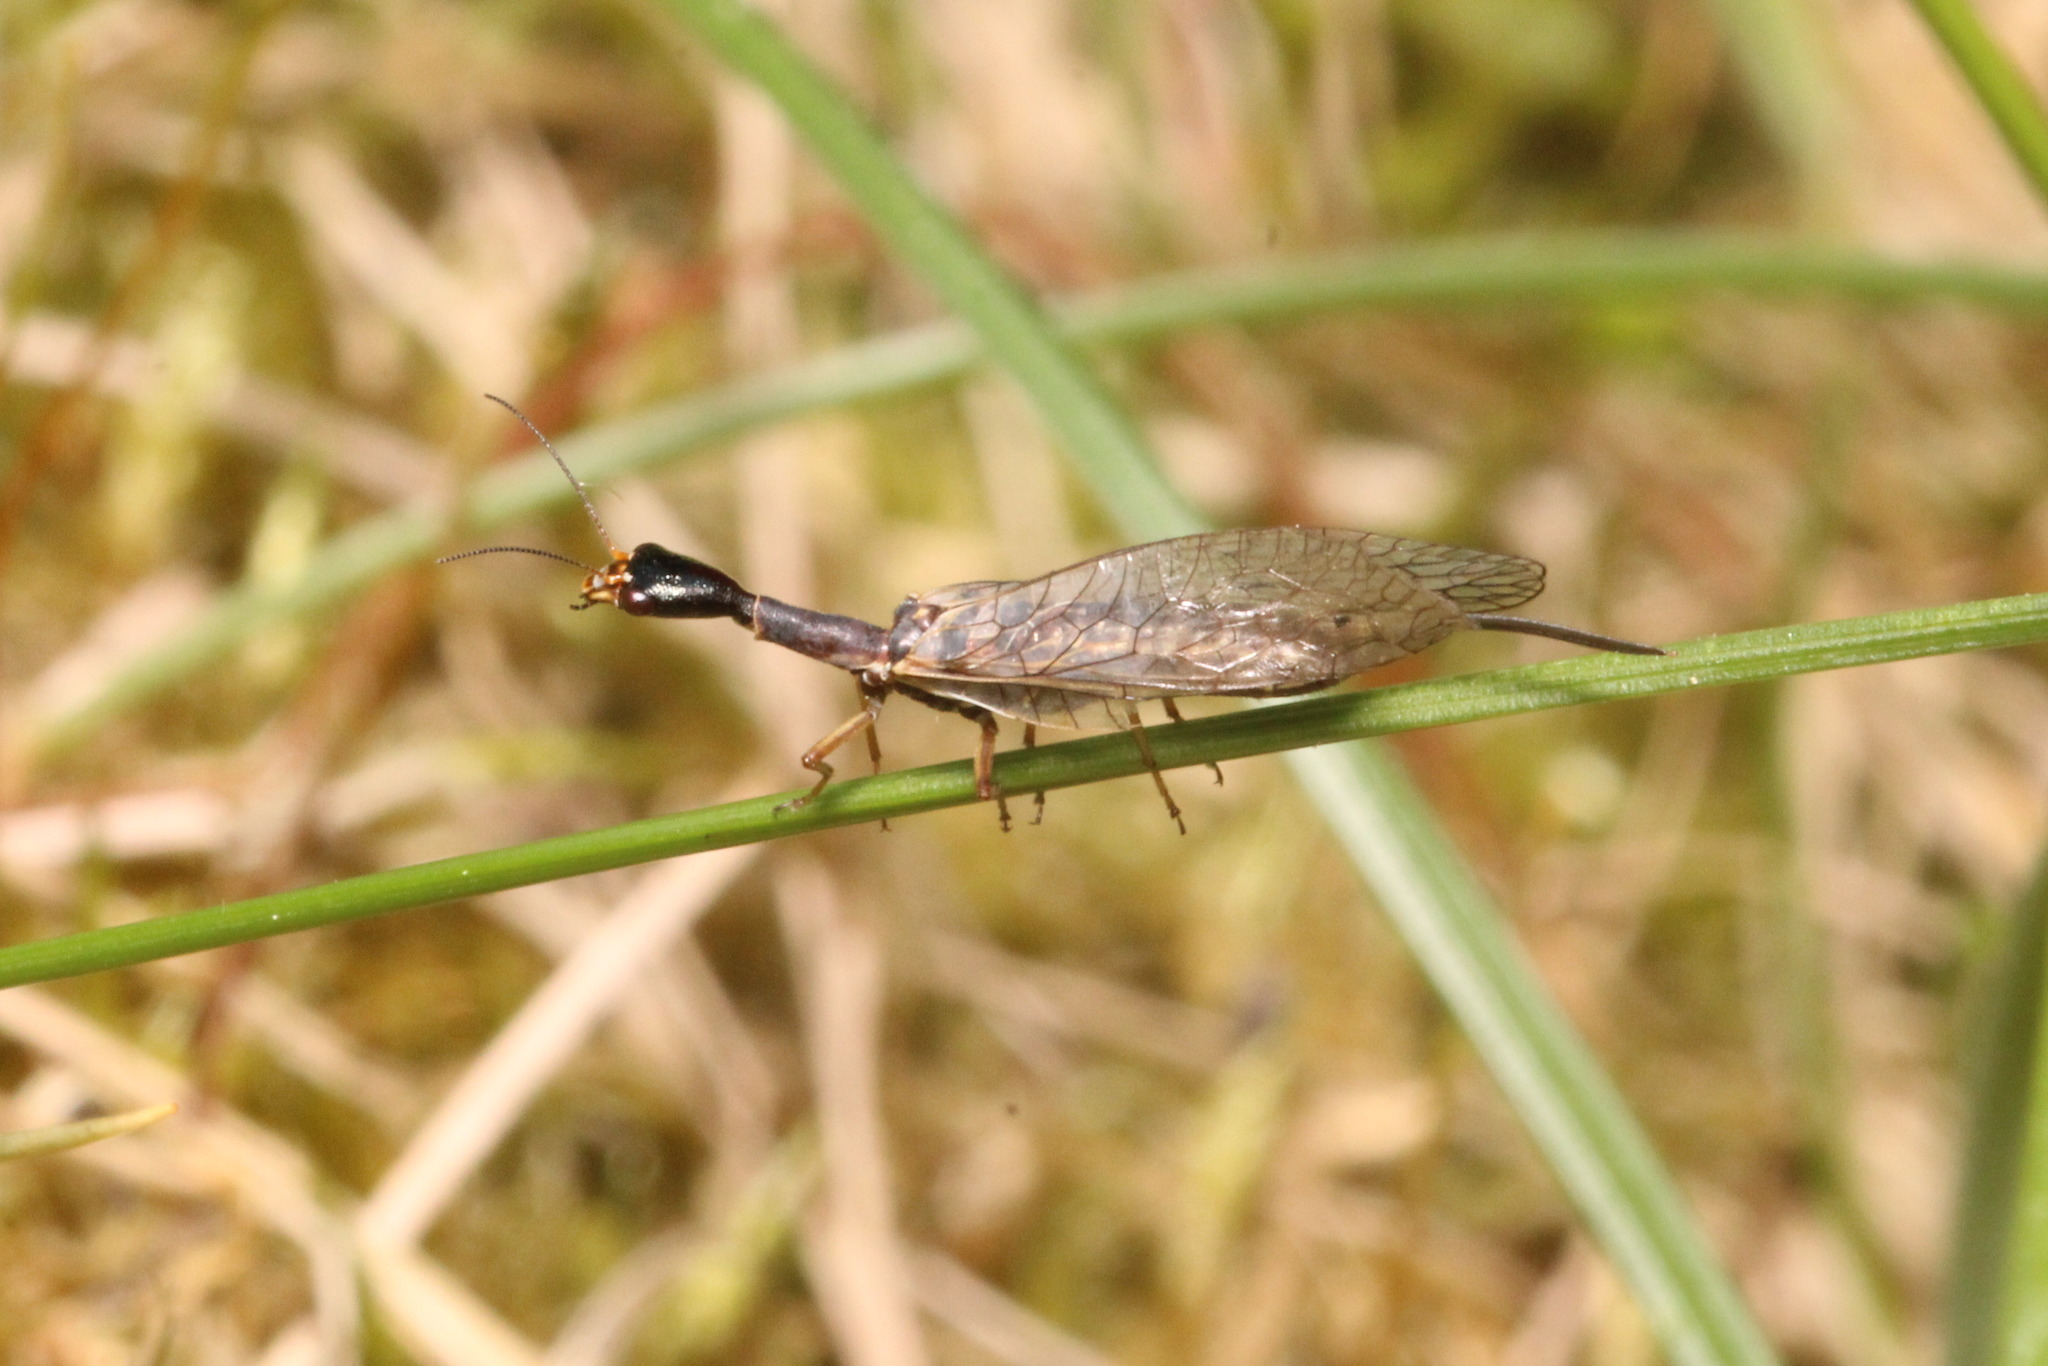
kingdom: Animalia
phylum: Arthropoda
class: Insecta
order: Raphidioptera
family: Raphidiidae
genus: Xanthostigma
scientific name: Xanthostigma xanthostigma
